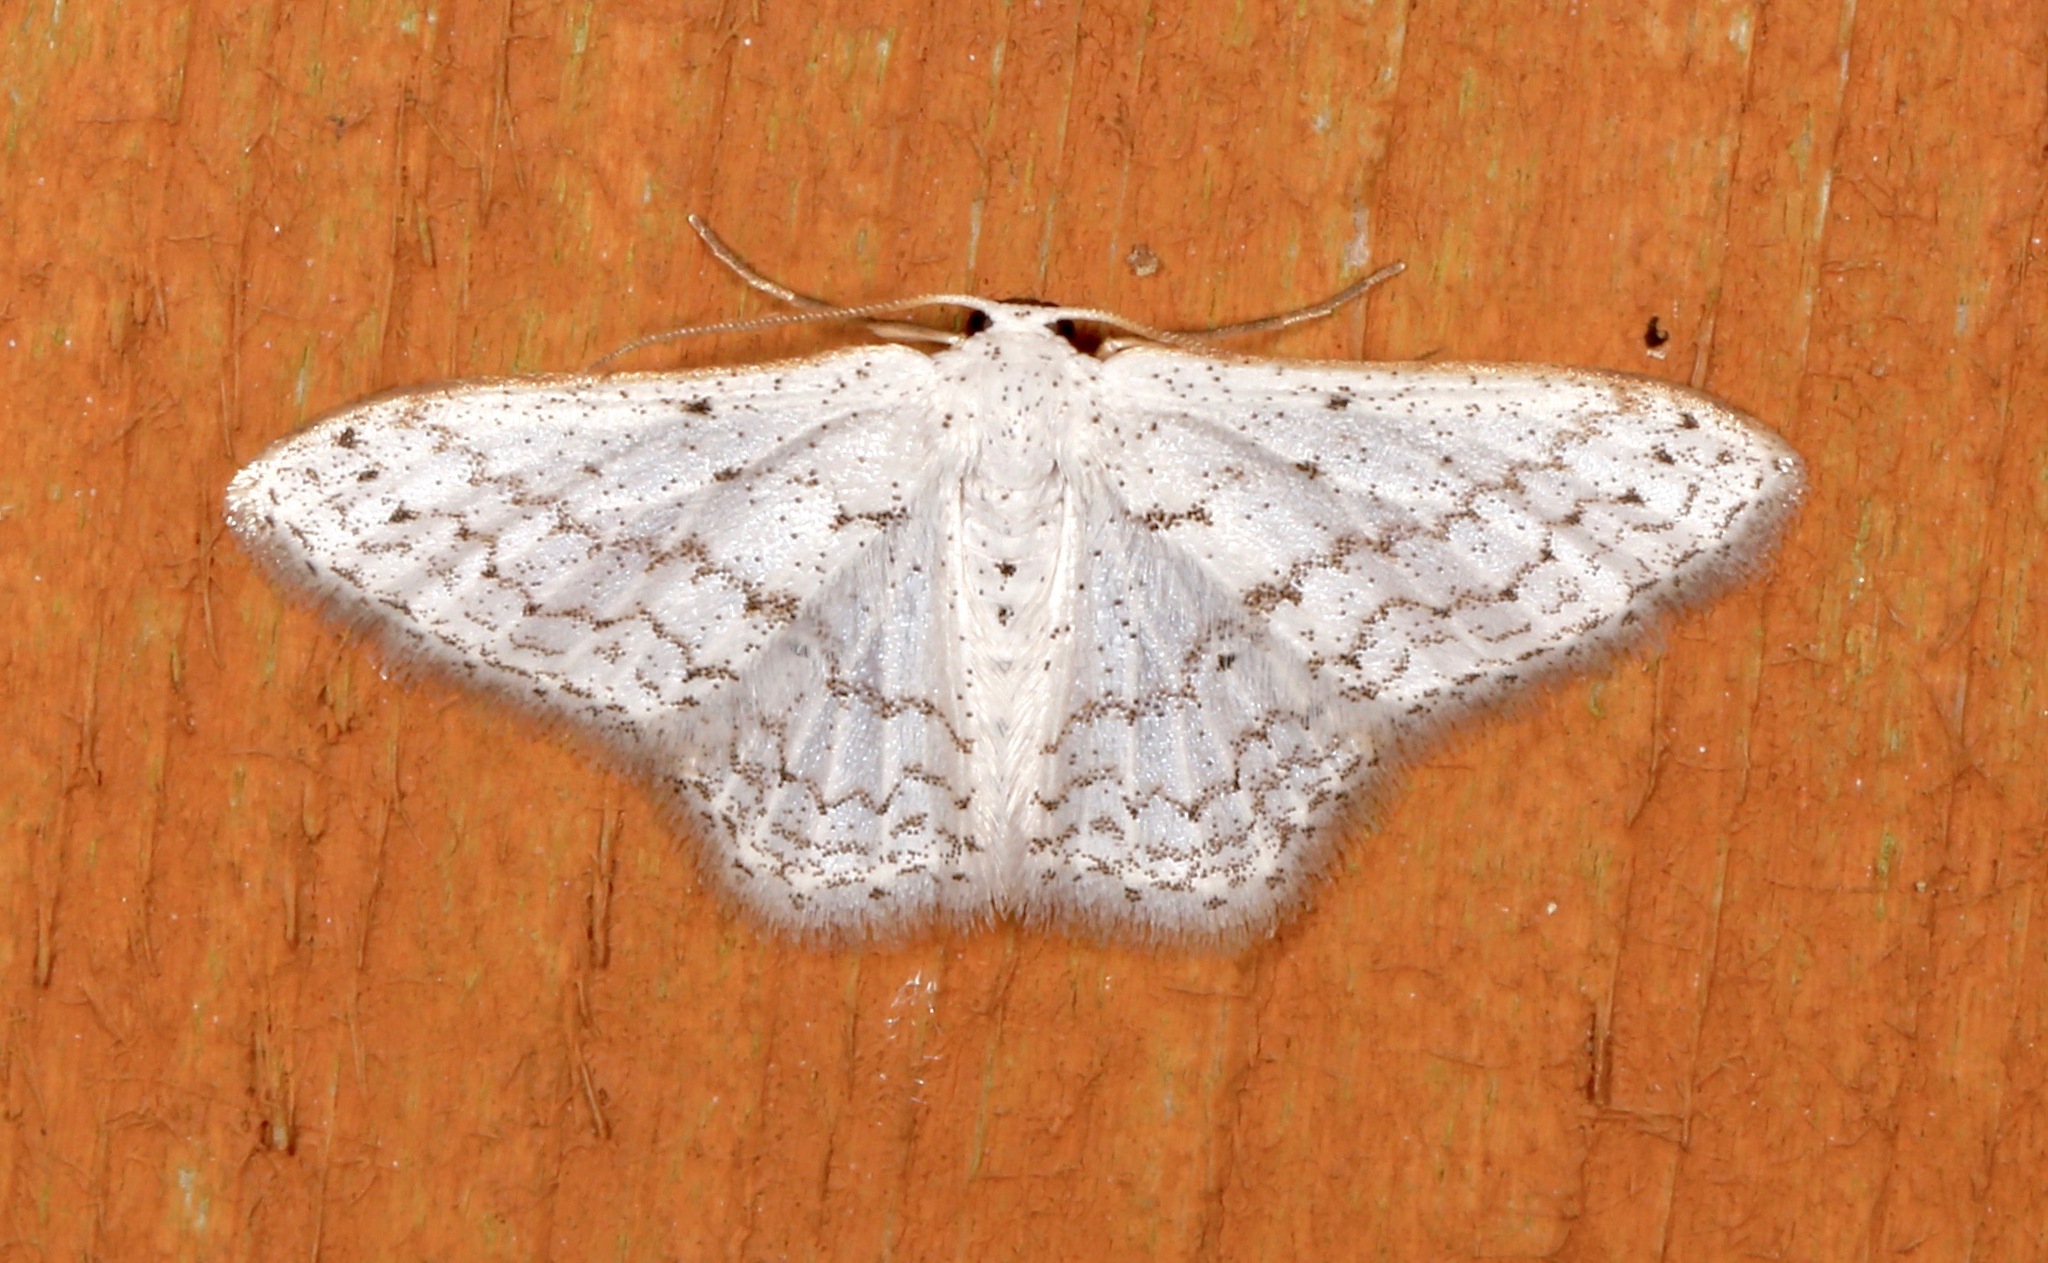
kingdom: Animalia
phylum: Arthropoda
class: Insecta
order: Lepidoptera
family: Geometridae
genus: Idaea
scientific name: Idaea tacturata
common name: Dot-lined wave
